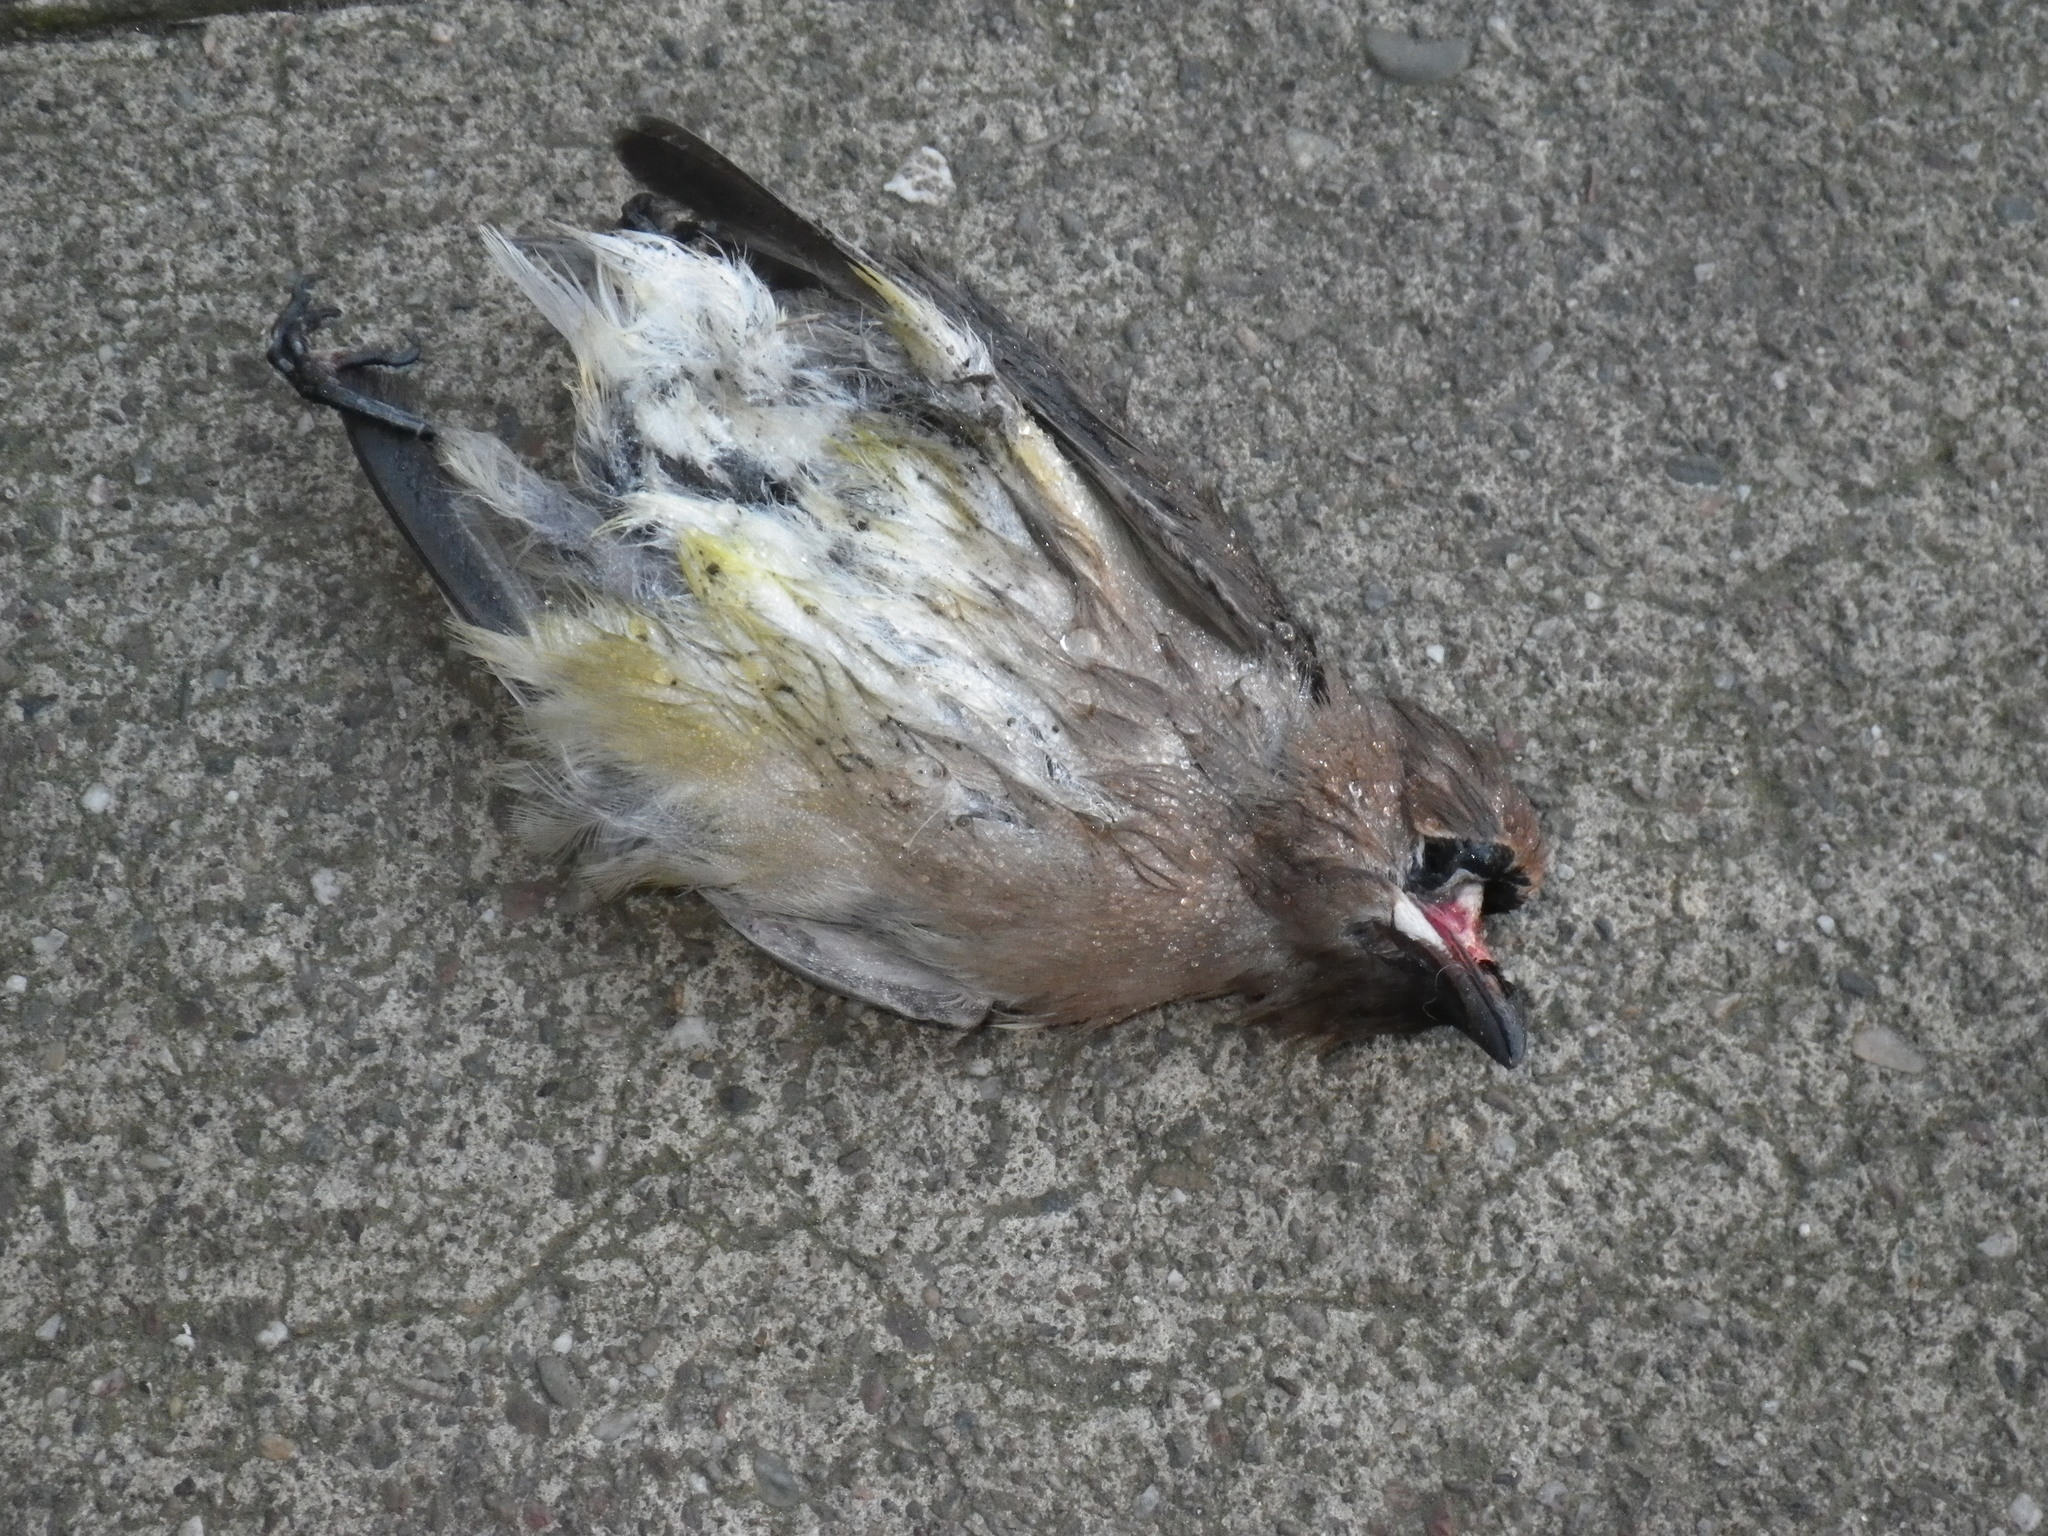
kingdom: Animalia
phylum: Chordata
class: Aves
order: Passeriformes
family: Bombycillidae
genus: Bombycilla
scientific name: Bombycilla cedrorum
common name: Cedar waxwing
